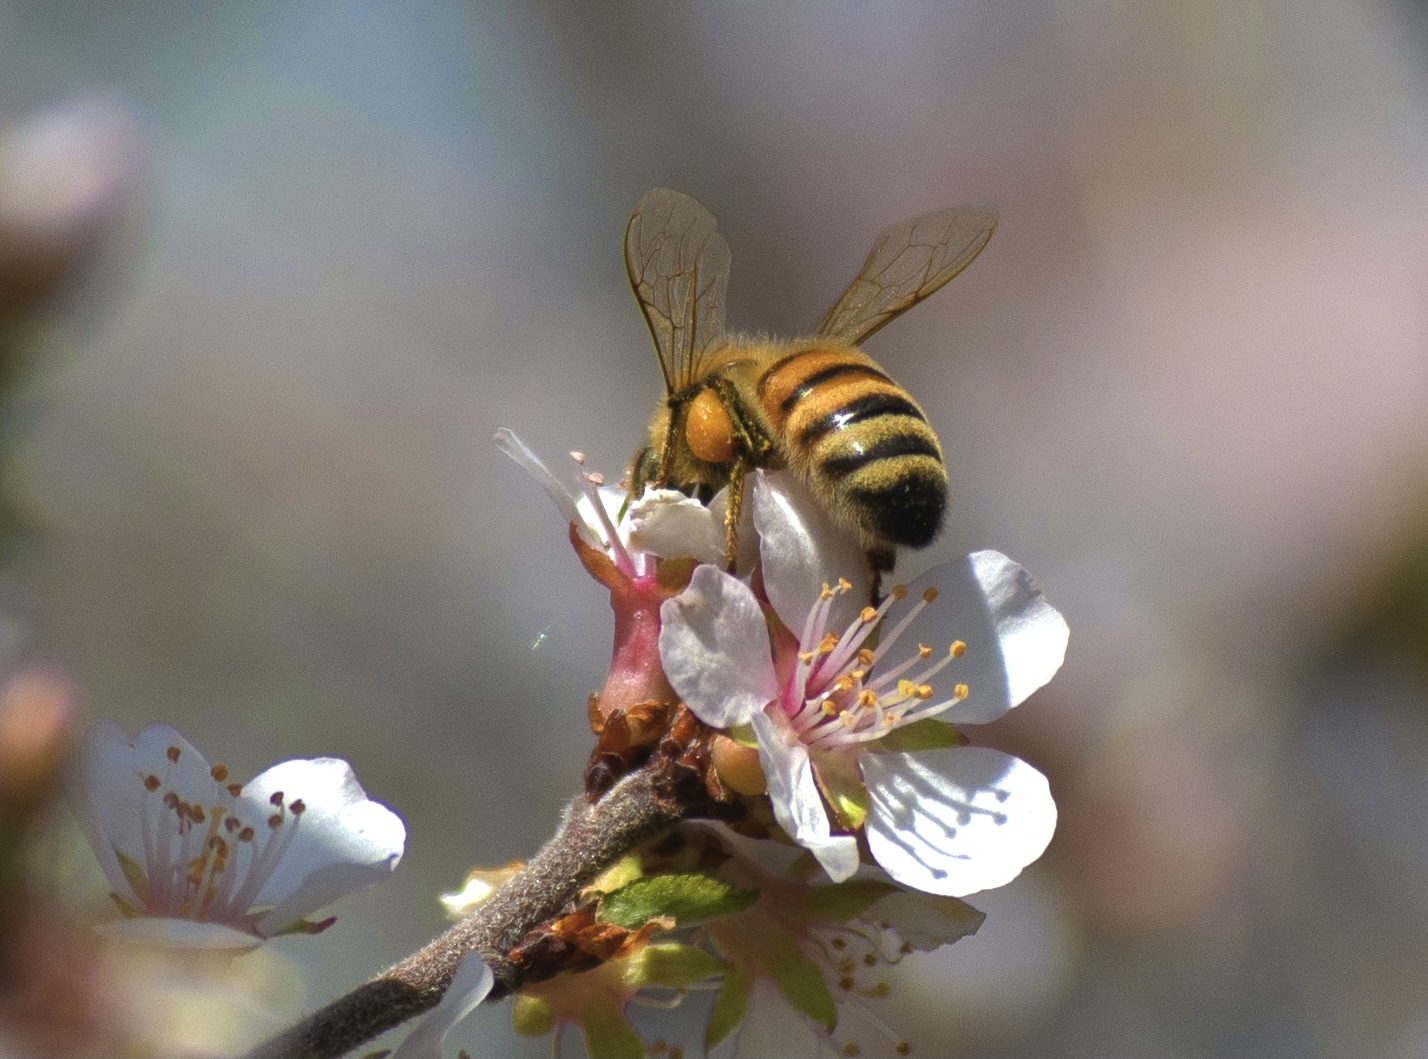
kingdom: Animalia
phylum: Arthropoda
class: Insecta
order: Hymenoptera
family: Apidae
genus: Apis
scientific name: Apis mellifera
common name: Honey bee
